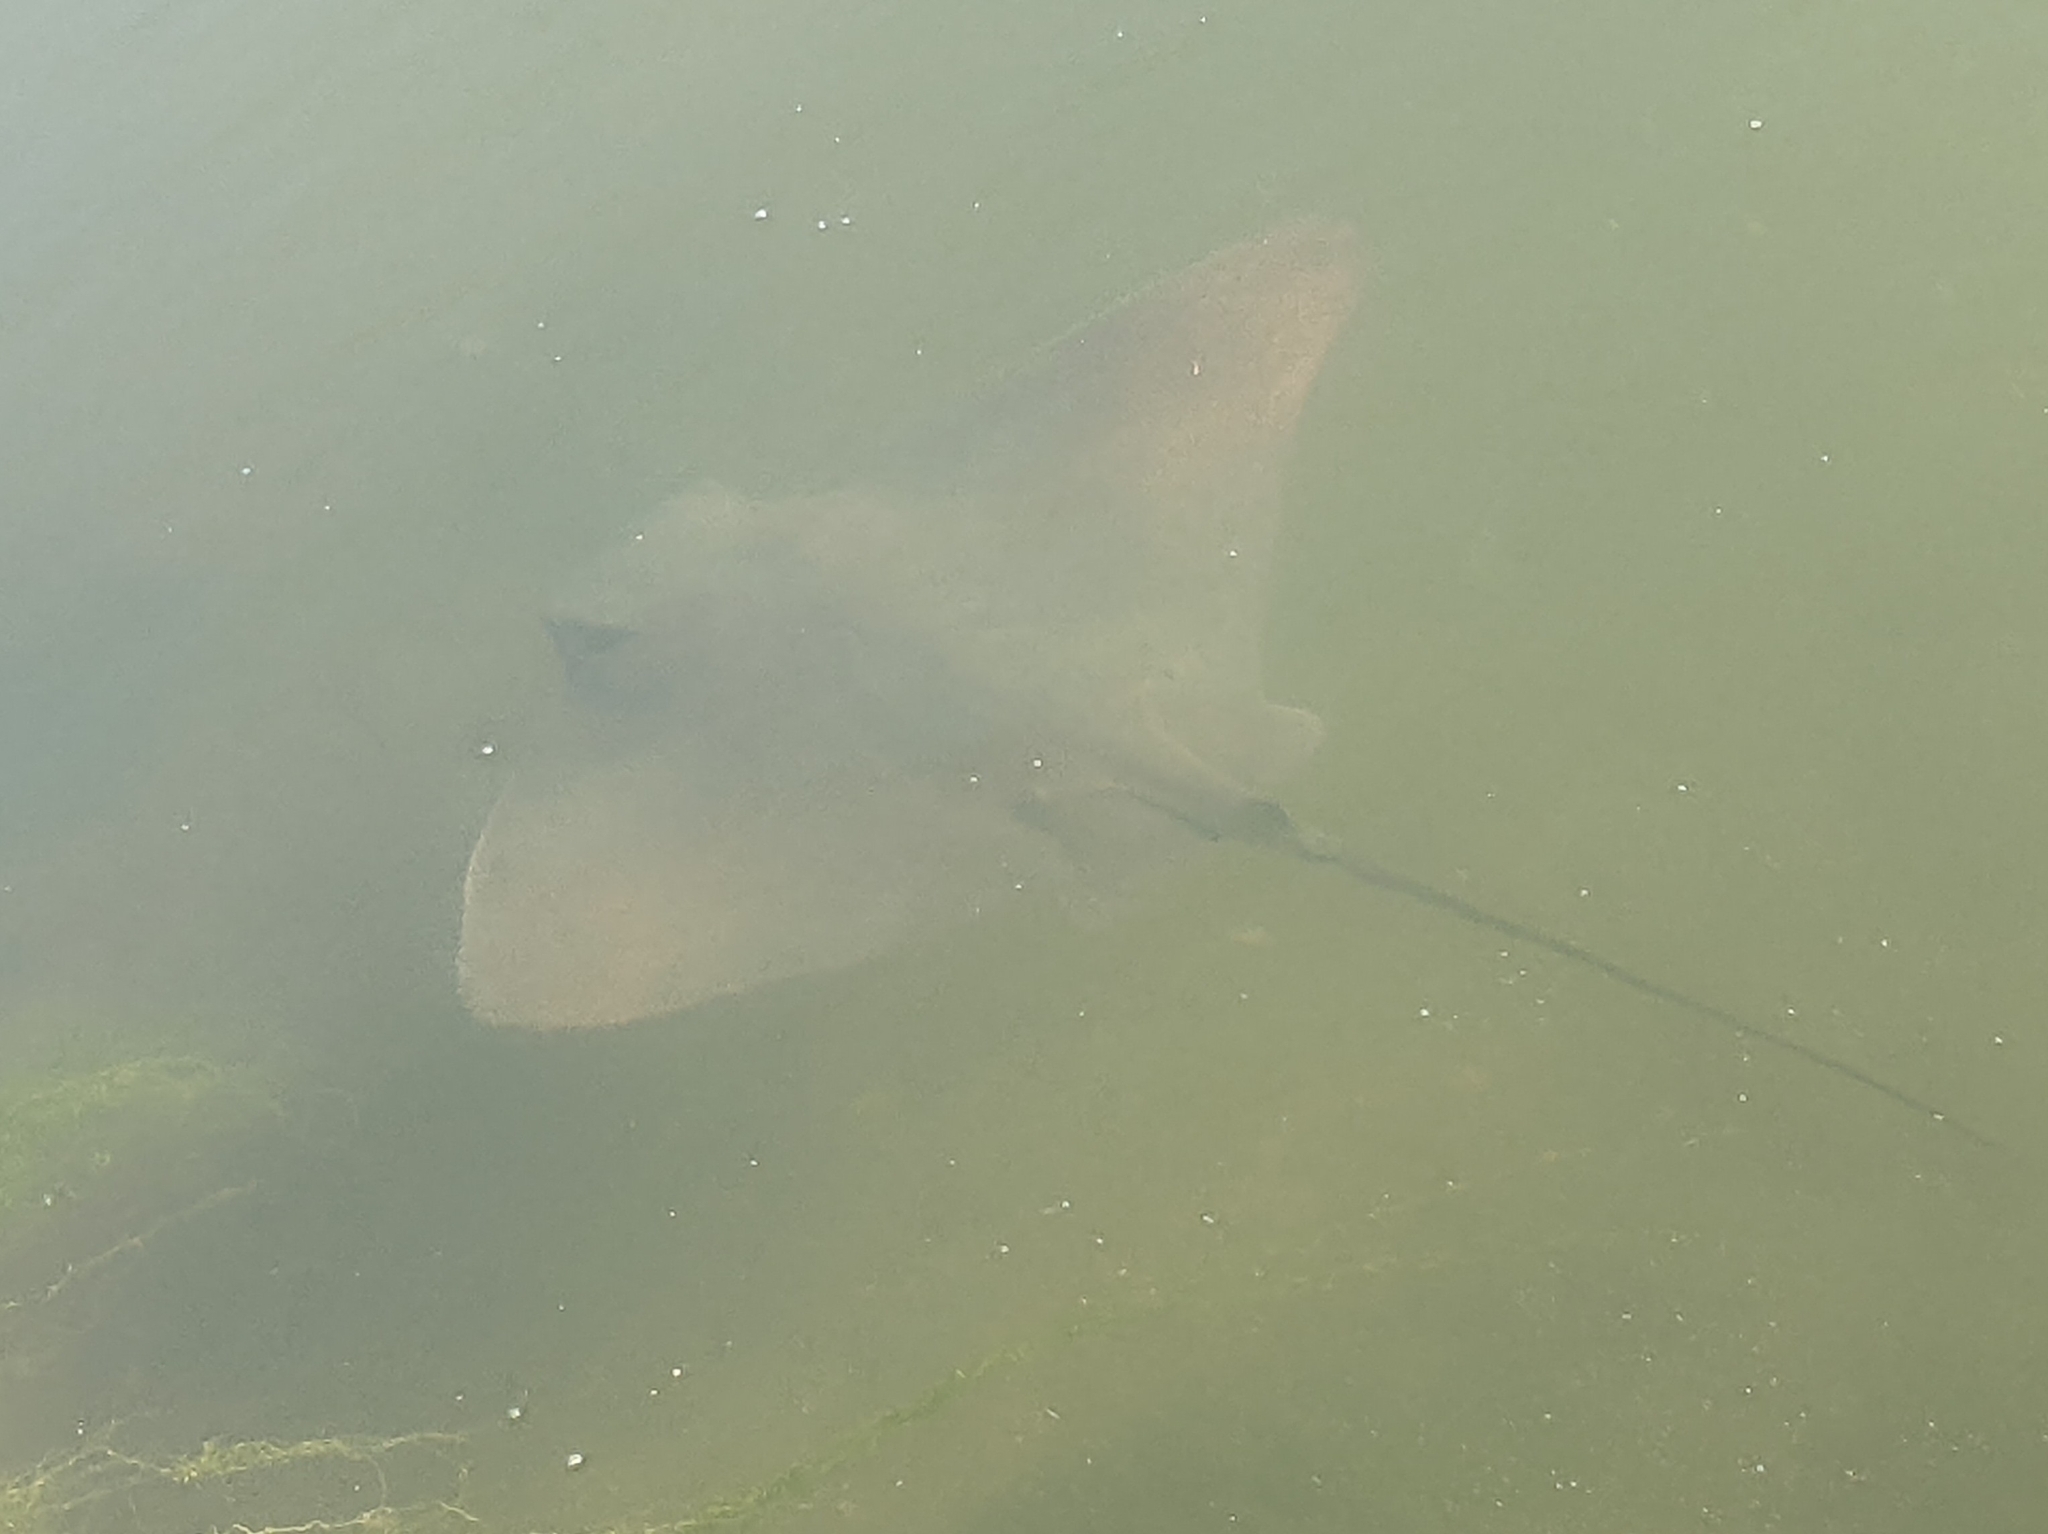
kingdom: Animalia
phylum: Chordata
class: Elasmobranchii
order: Myliobatiformes
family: Myliobatidae
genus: Myliobatis
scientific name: Myliobatis californica
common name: Bat ray
